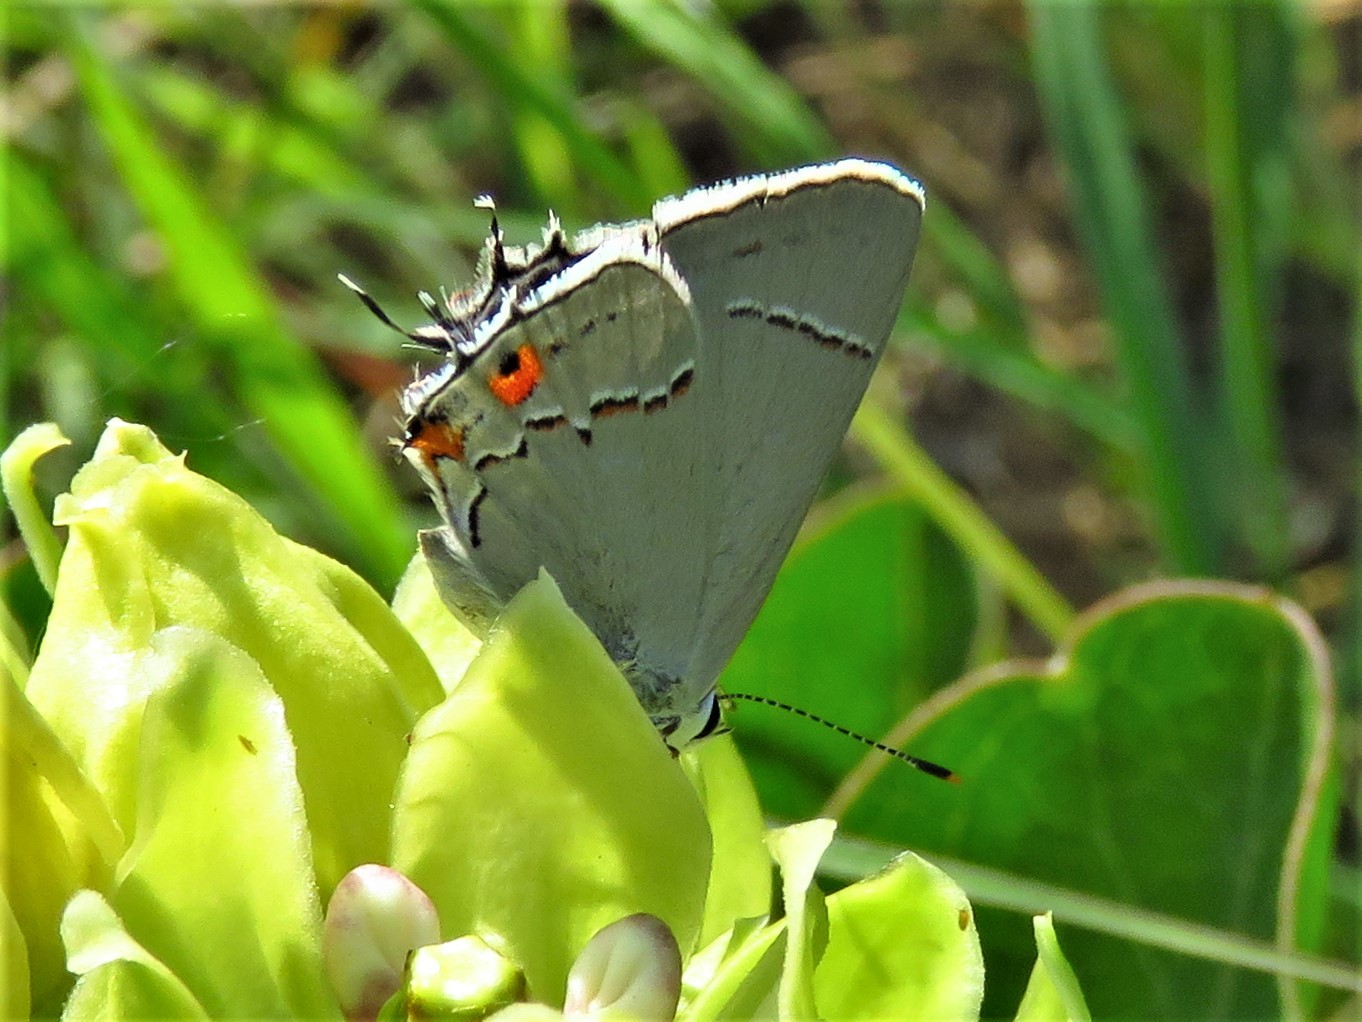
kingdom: Animalia
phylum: Arthropoda
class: Insecta
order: Lepidoptera
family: Lycaenidae
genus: Strymon
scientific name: Strymon melinus
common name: Gray hairstreak
